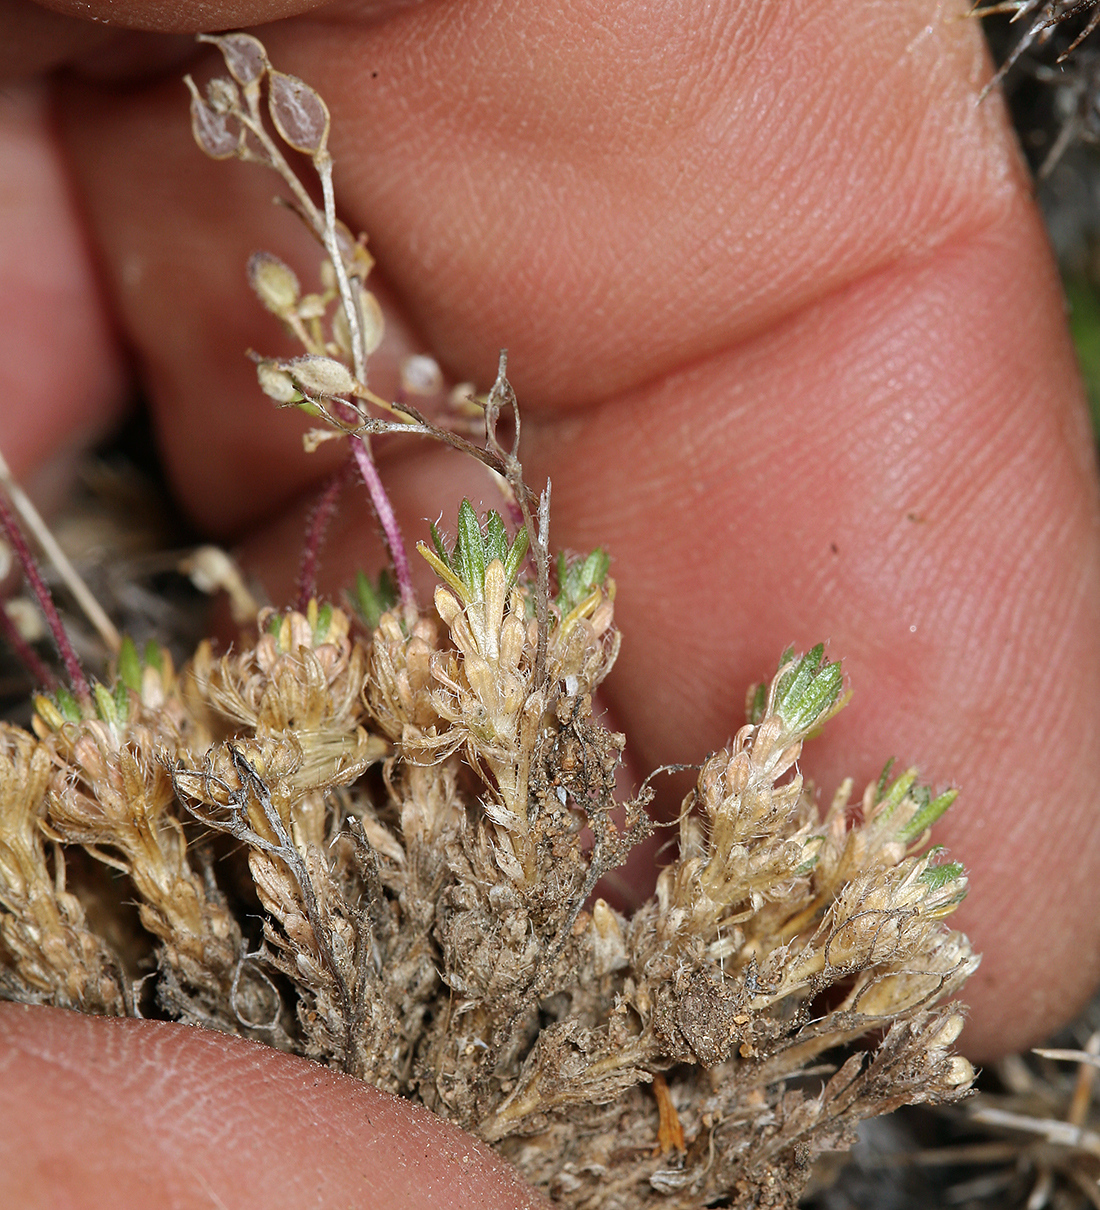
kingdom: Plantae
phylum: Tracheophyta
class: Magnoliopsida
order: Brassicales
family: Brassicaceae
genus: Draba
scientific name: Draba densifolia
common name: Nuttall's draba
